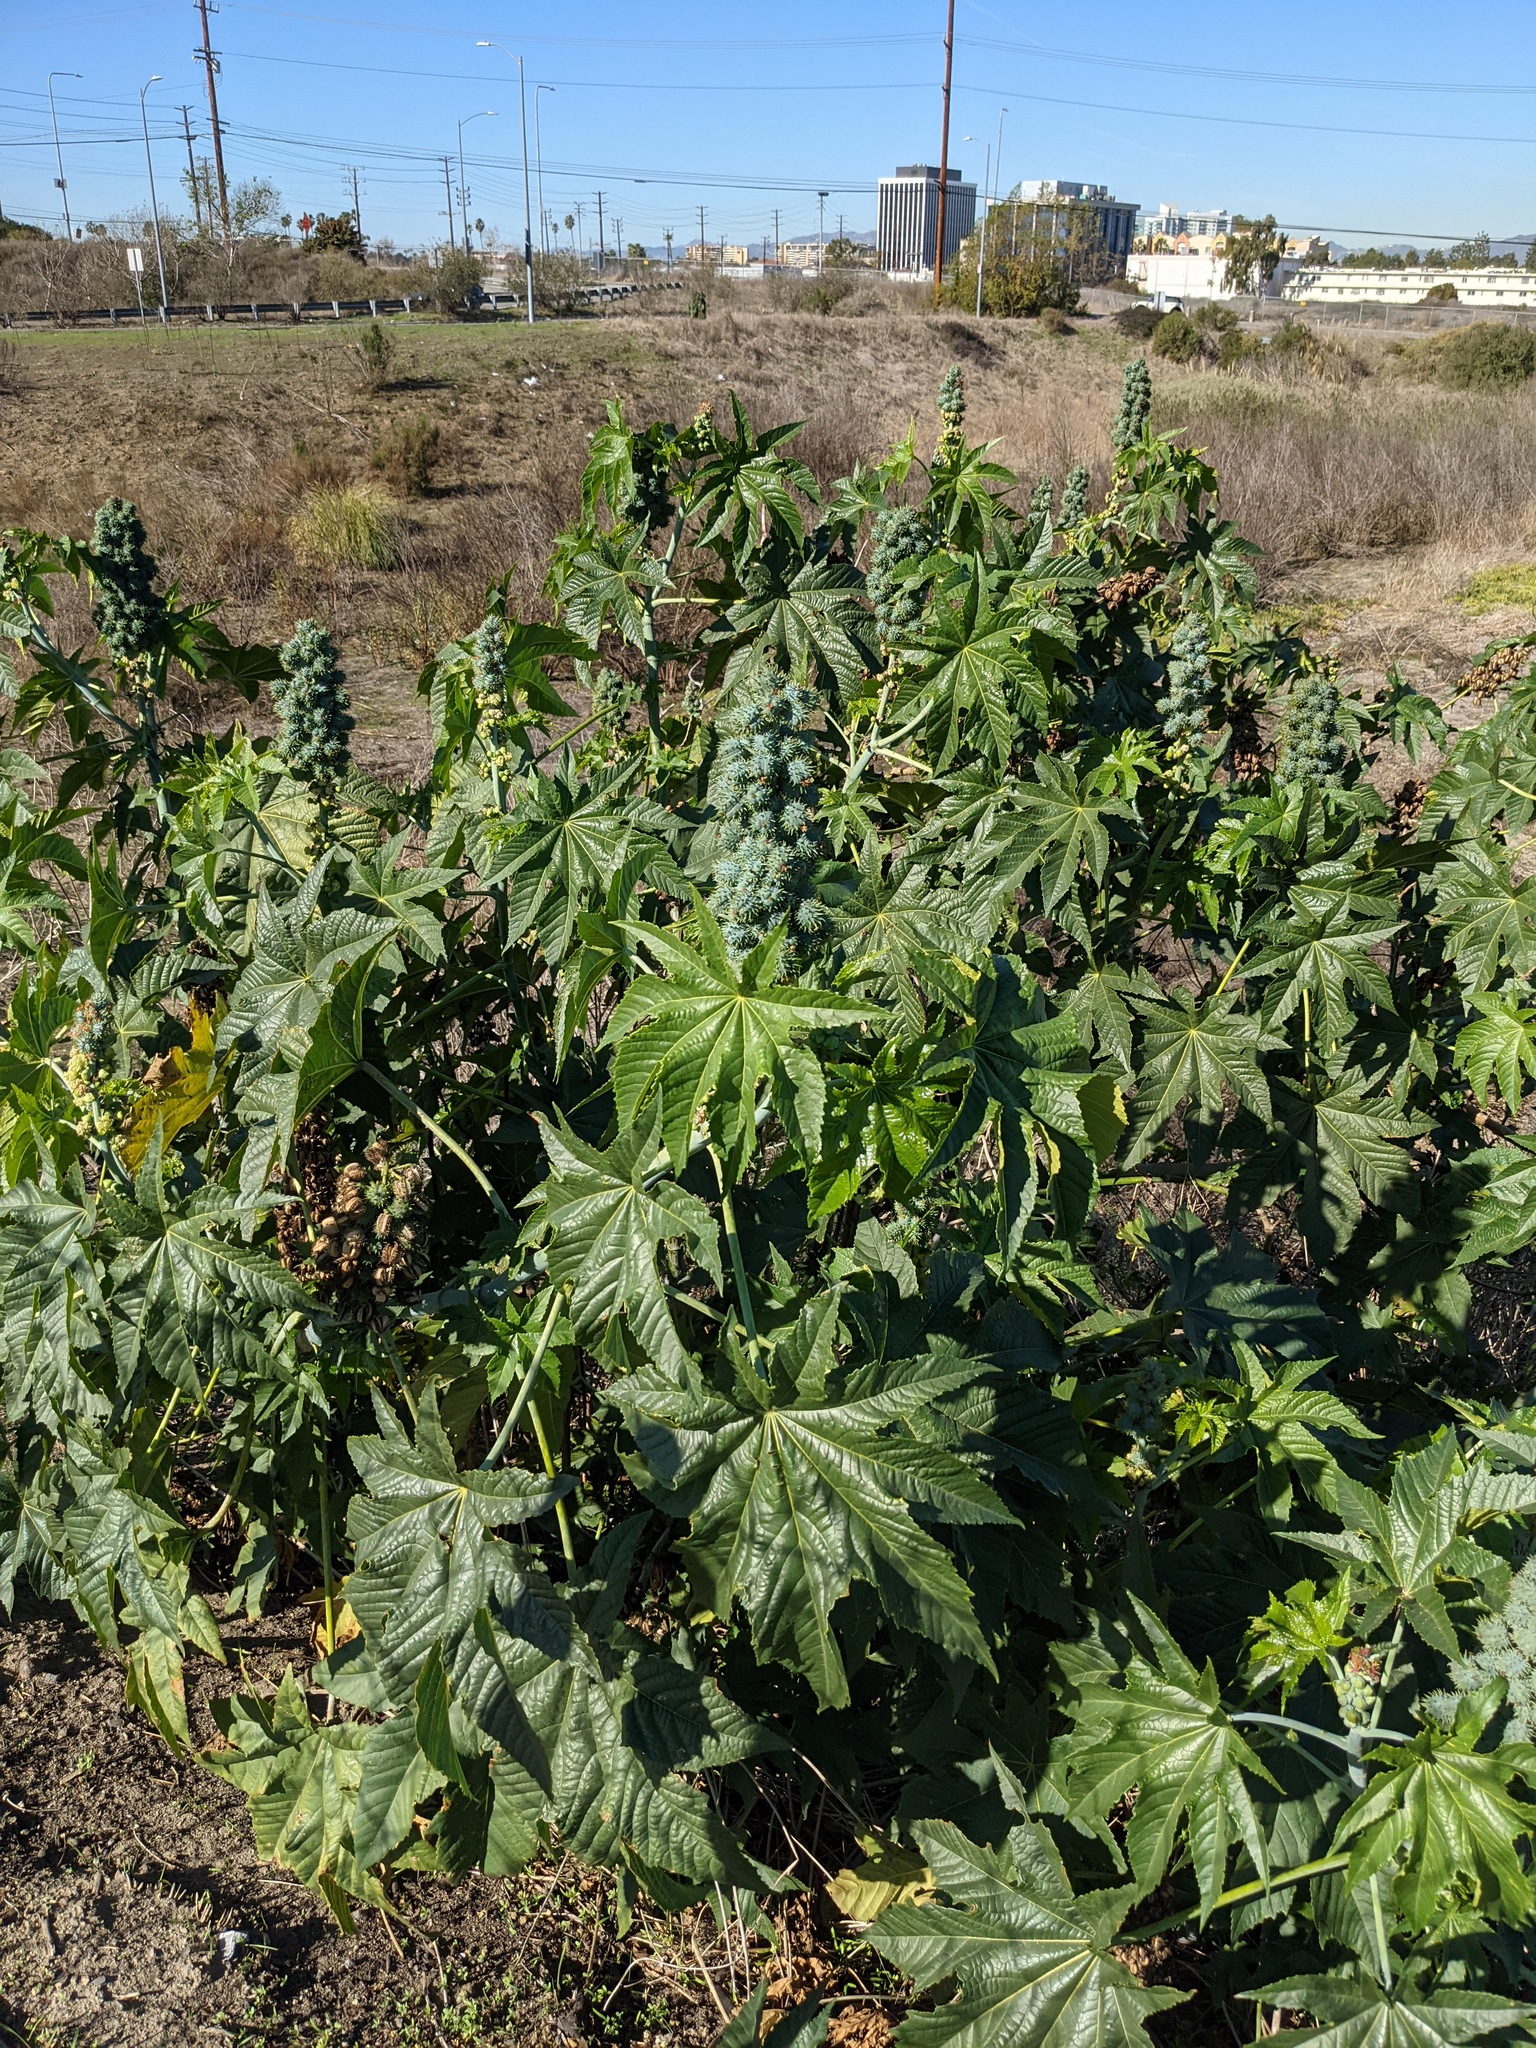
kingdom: Plantae
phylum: Tracheophyta
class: Magnoliopsida
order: Malpighiales
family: Euphorbiaceae
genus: Ricinus
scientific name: Ricinus communis
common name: Castor-oil-plant
